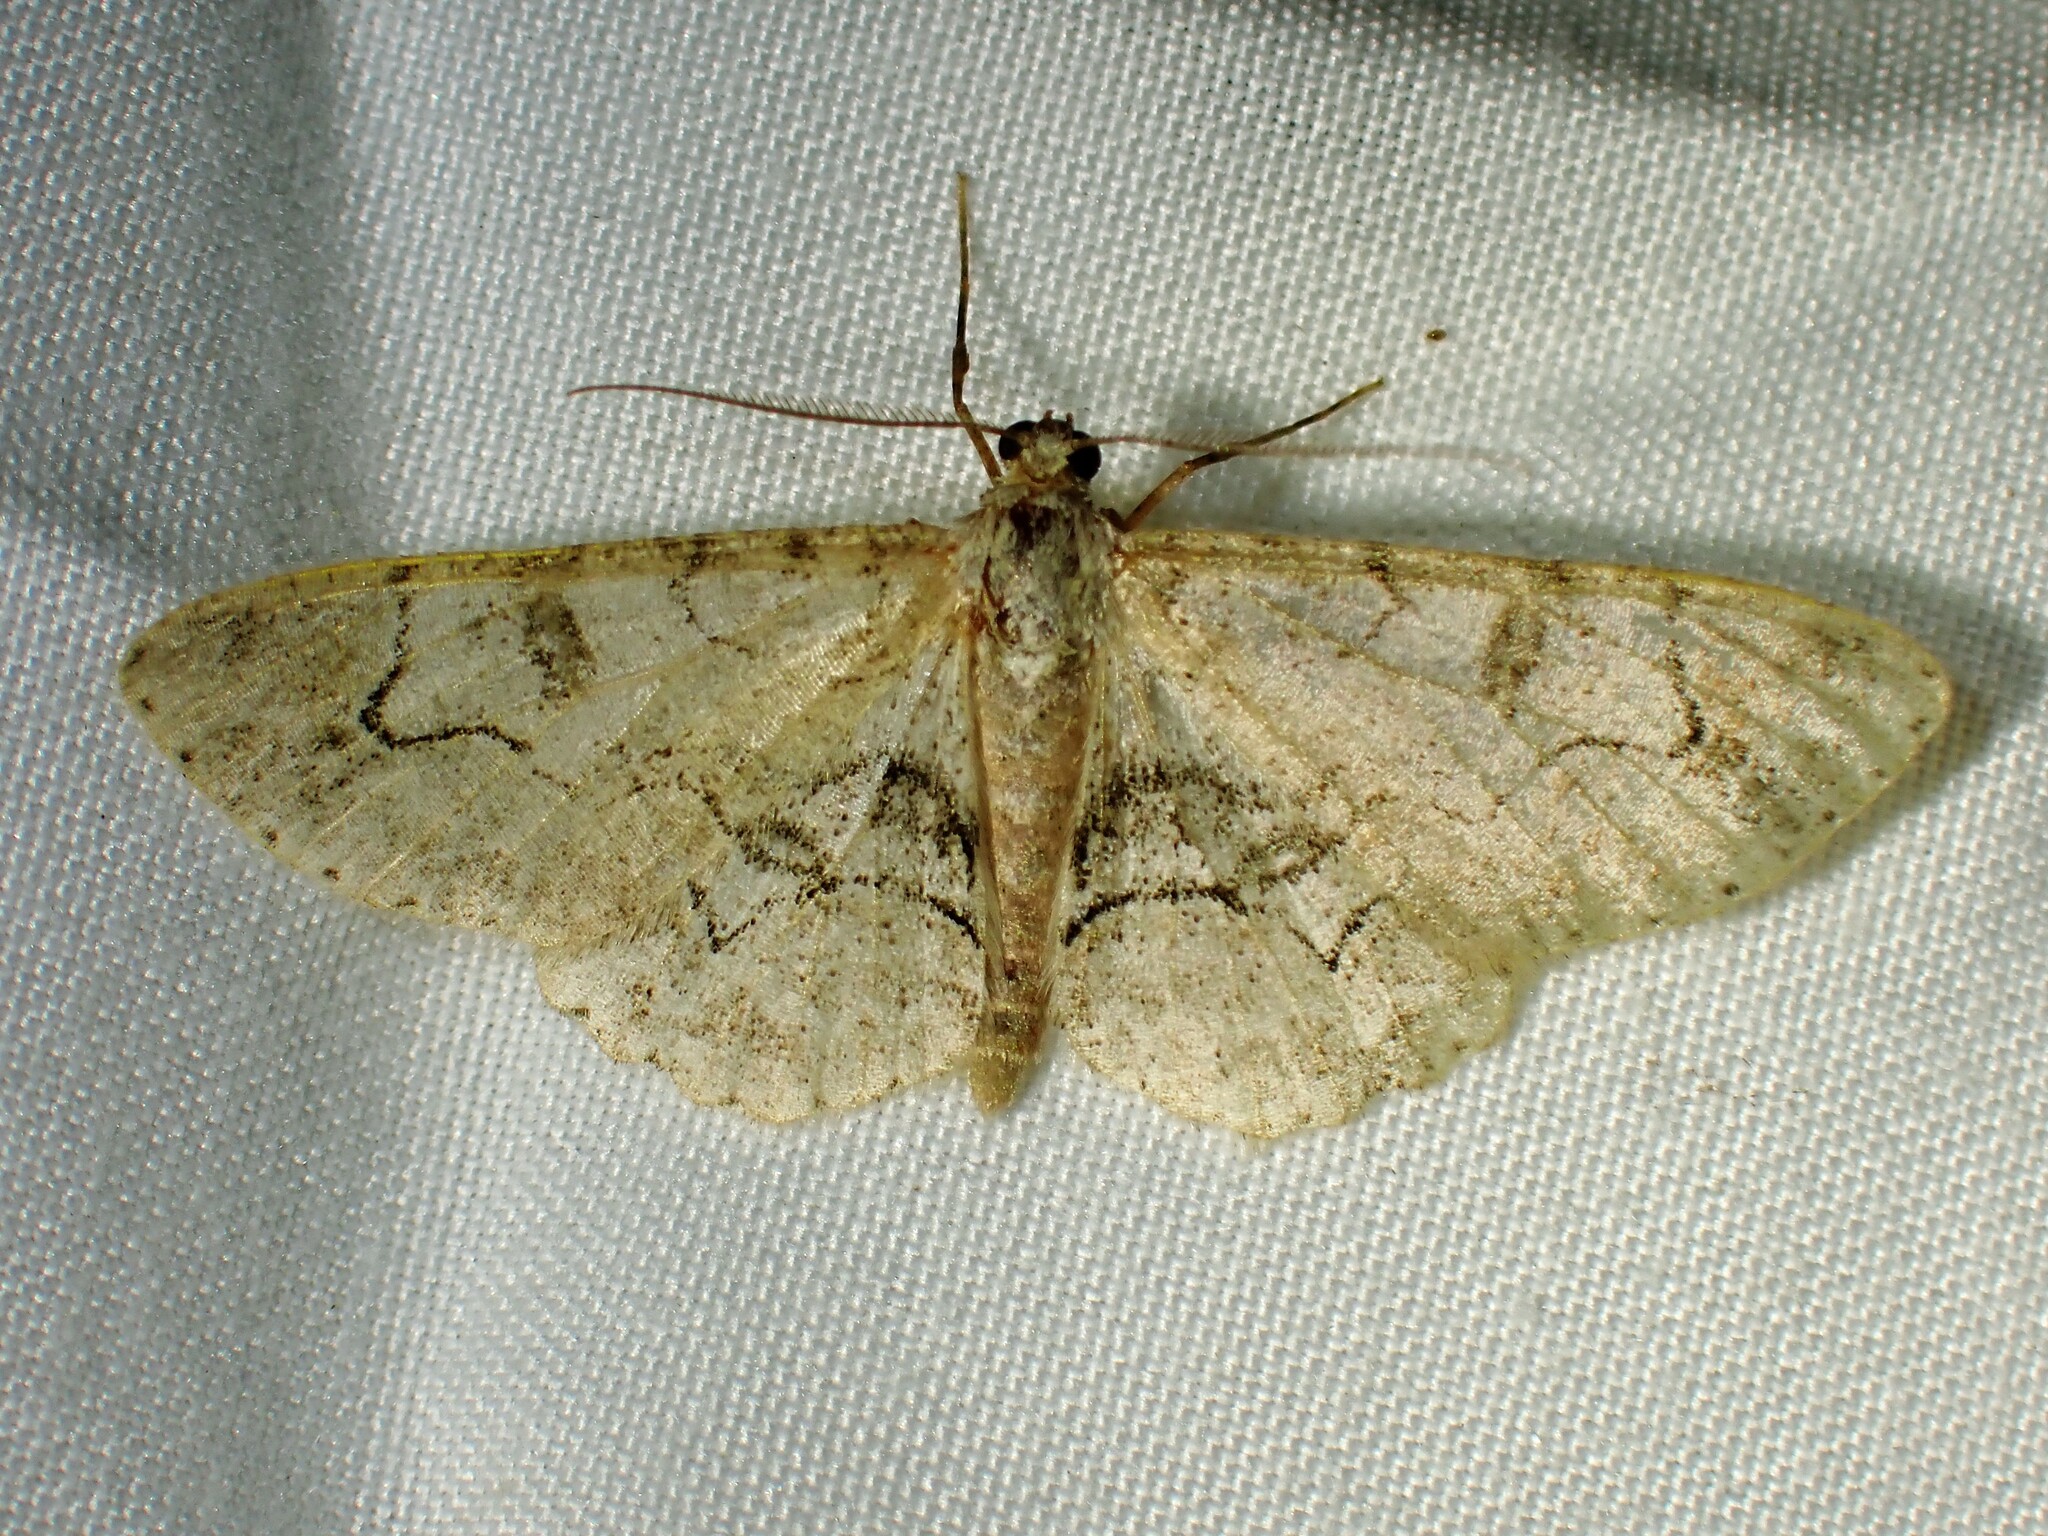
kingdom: Animalia
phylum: Arthropoda
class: Insecta
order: Lepidoptera
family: Geometridae
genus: Iridopsis
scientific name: Iridopsis larvaria
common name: Bent-line gray
